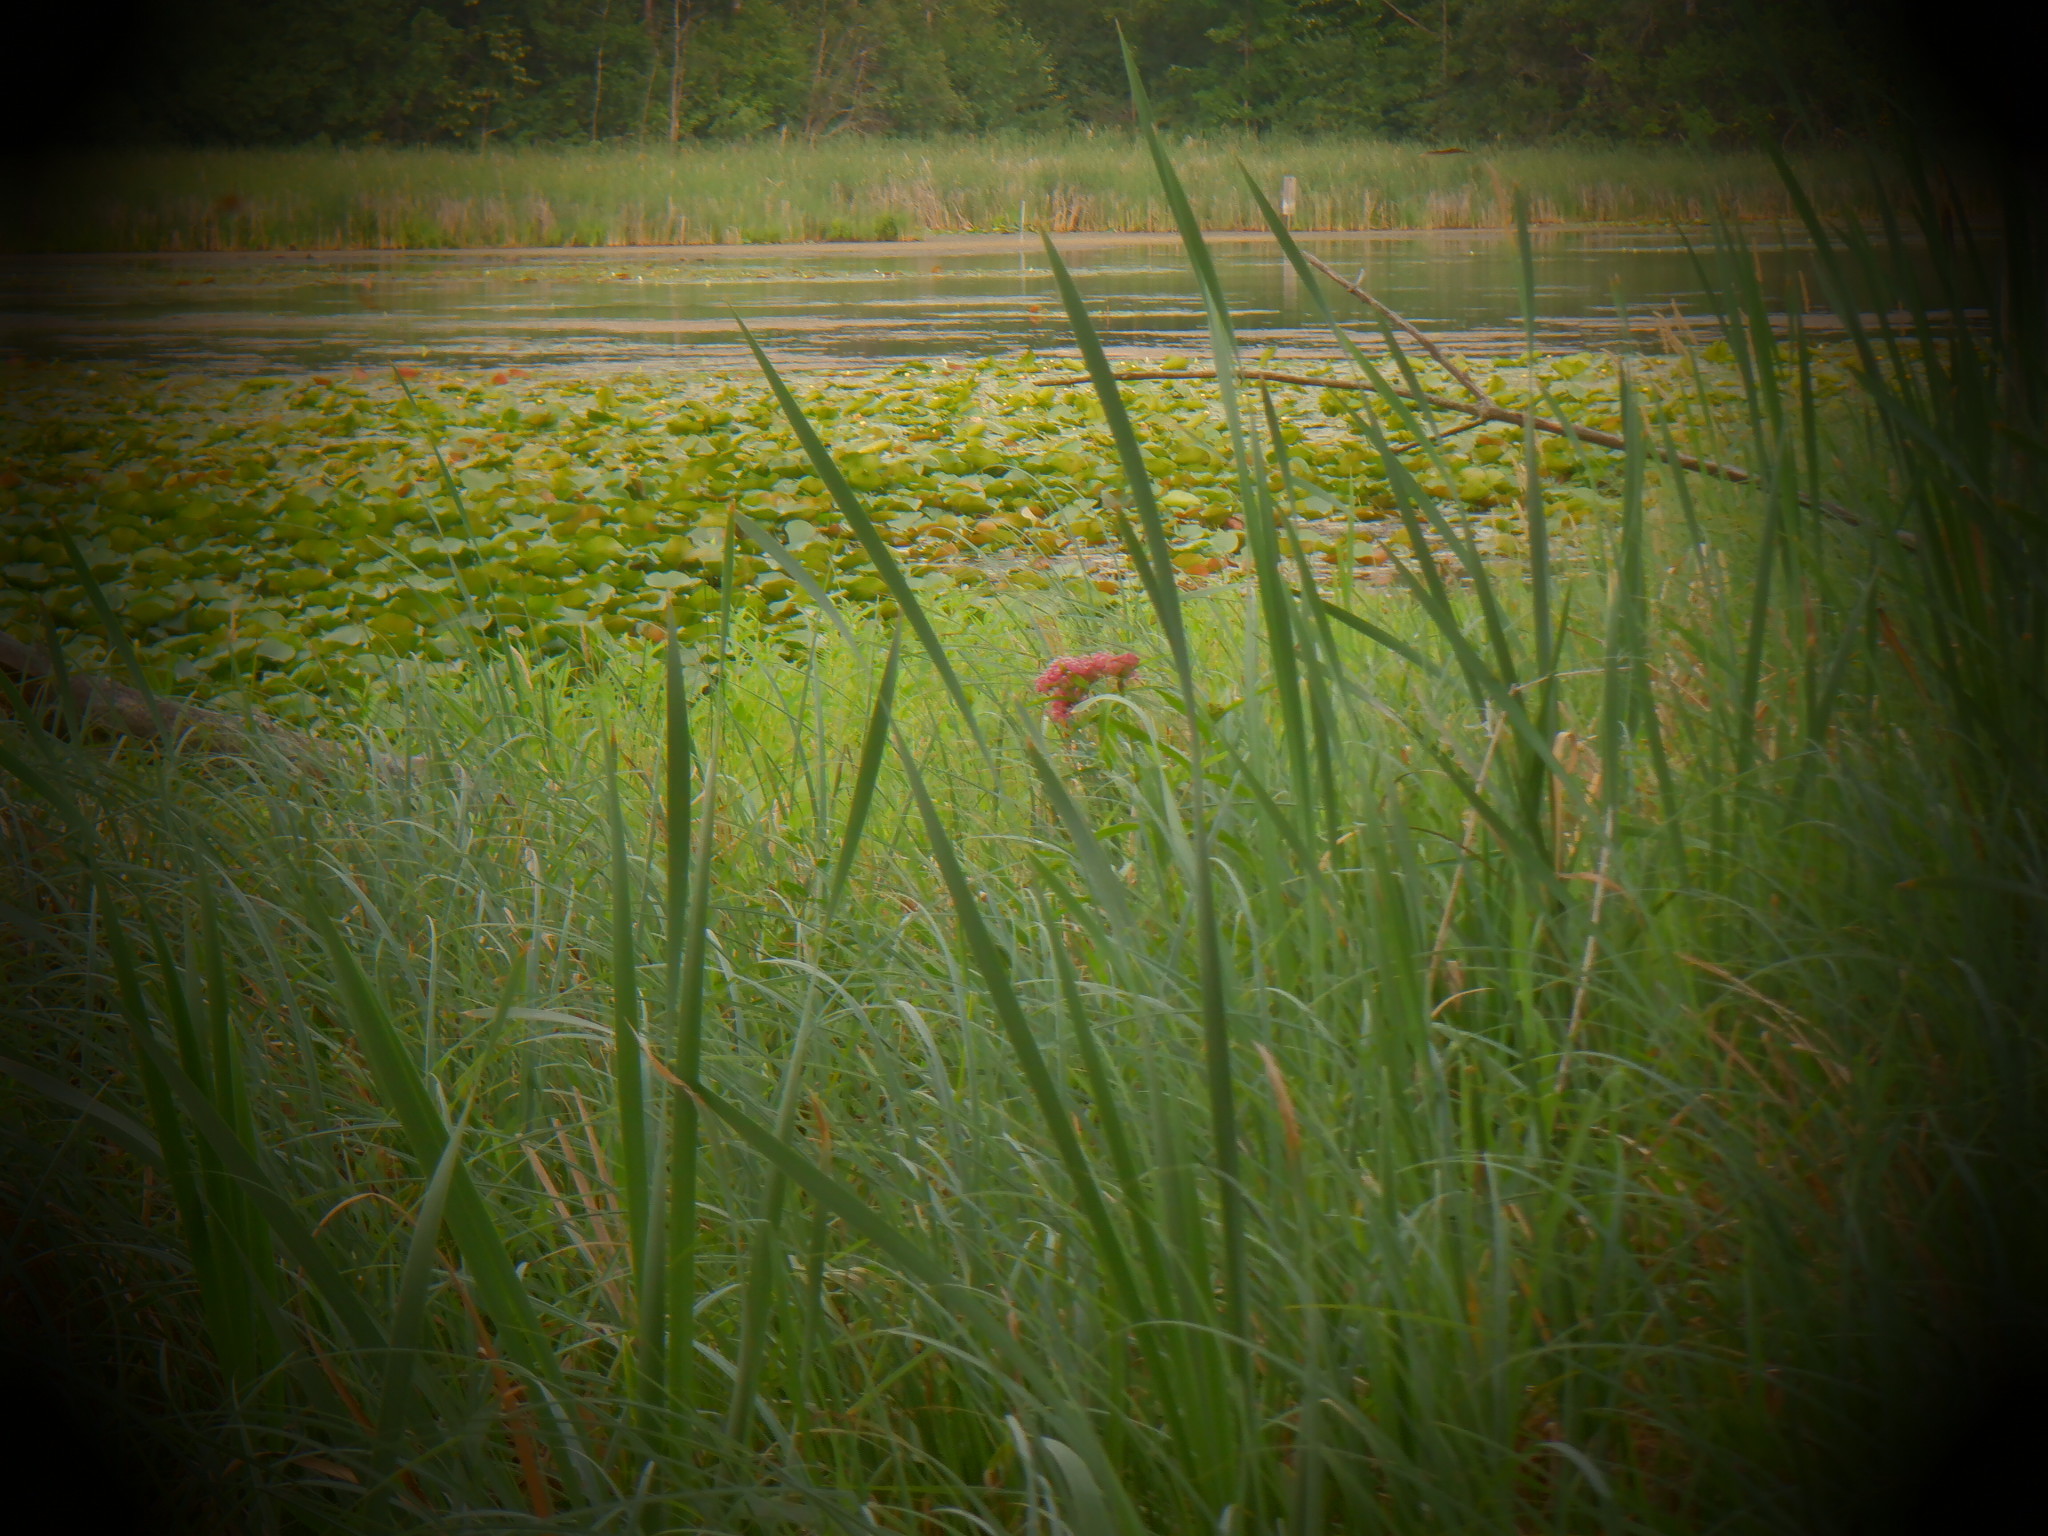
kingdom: Plantae
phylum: Tracheophyta
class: Magnoliopsida
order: Gentianales
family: Apocynaceae
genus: Asclepias
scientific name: Asclepias incarnata
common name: Swamp milkweed
